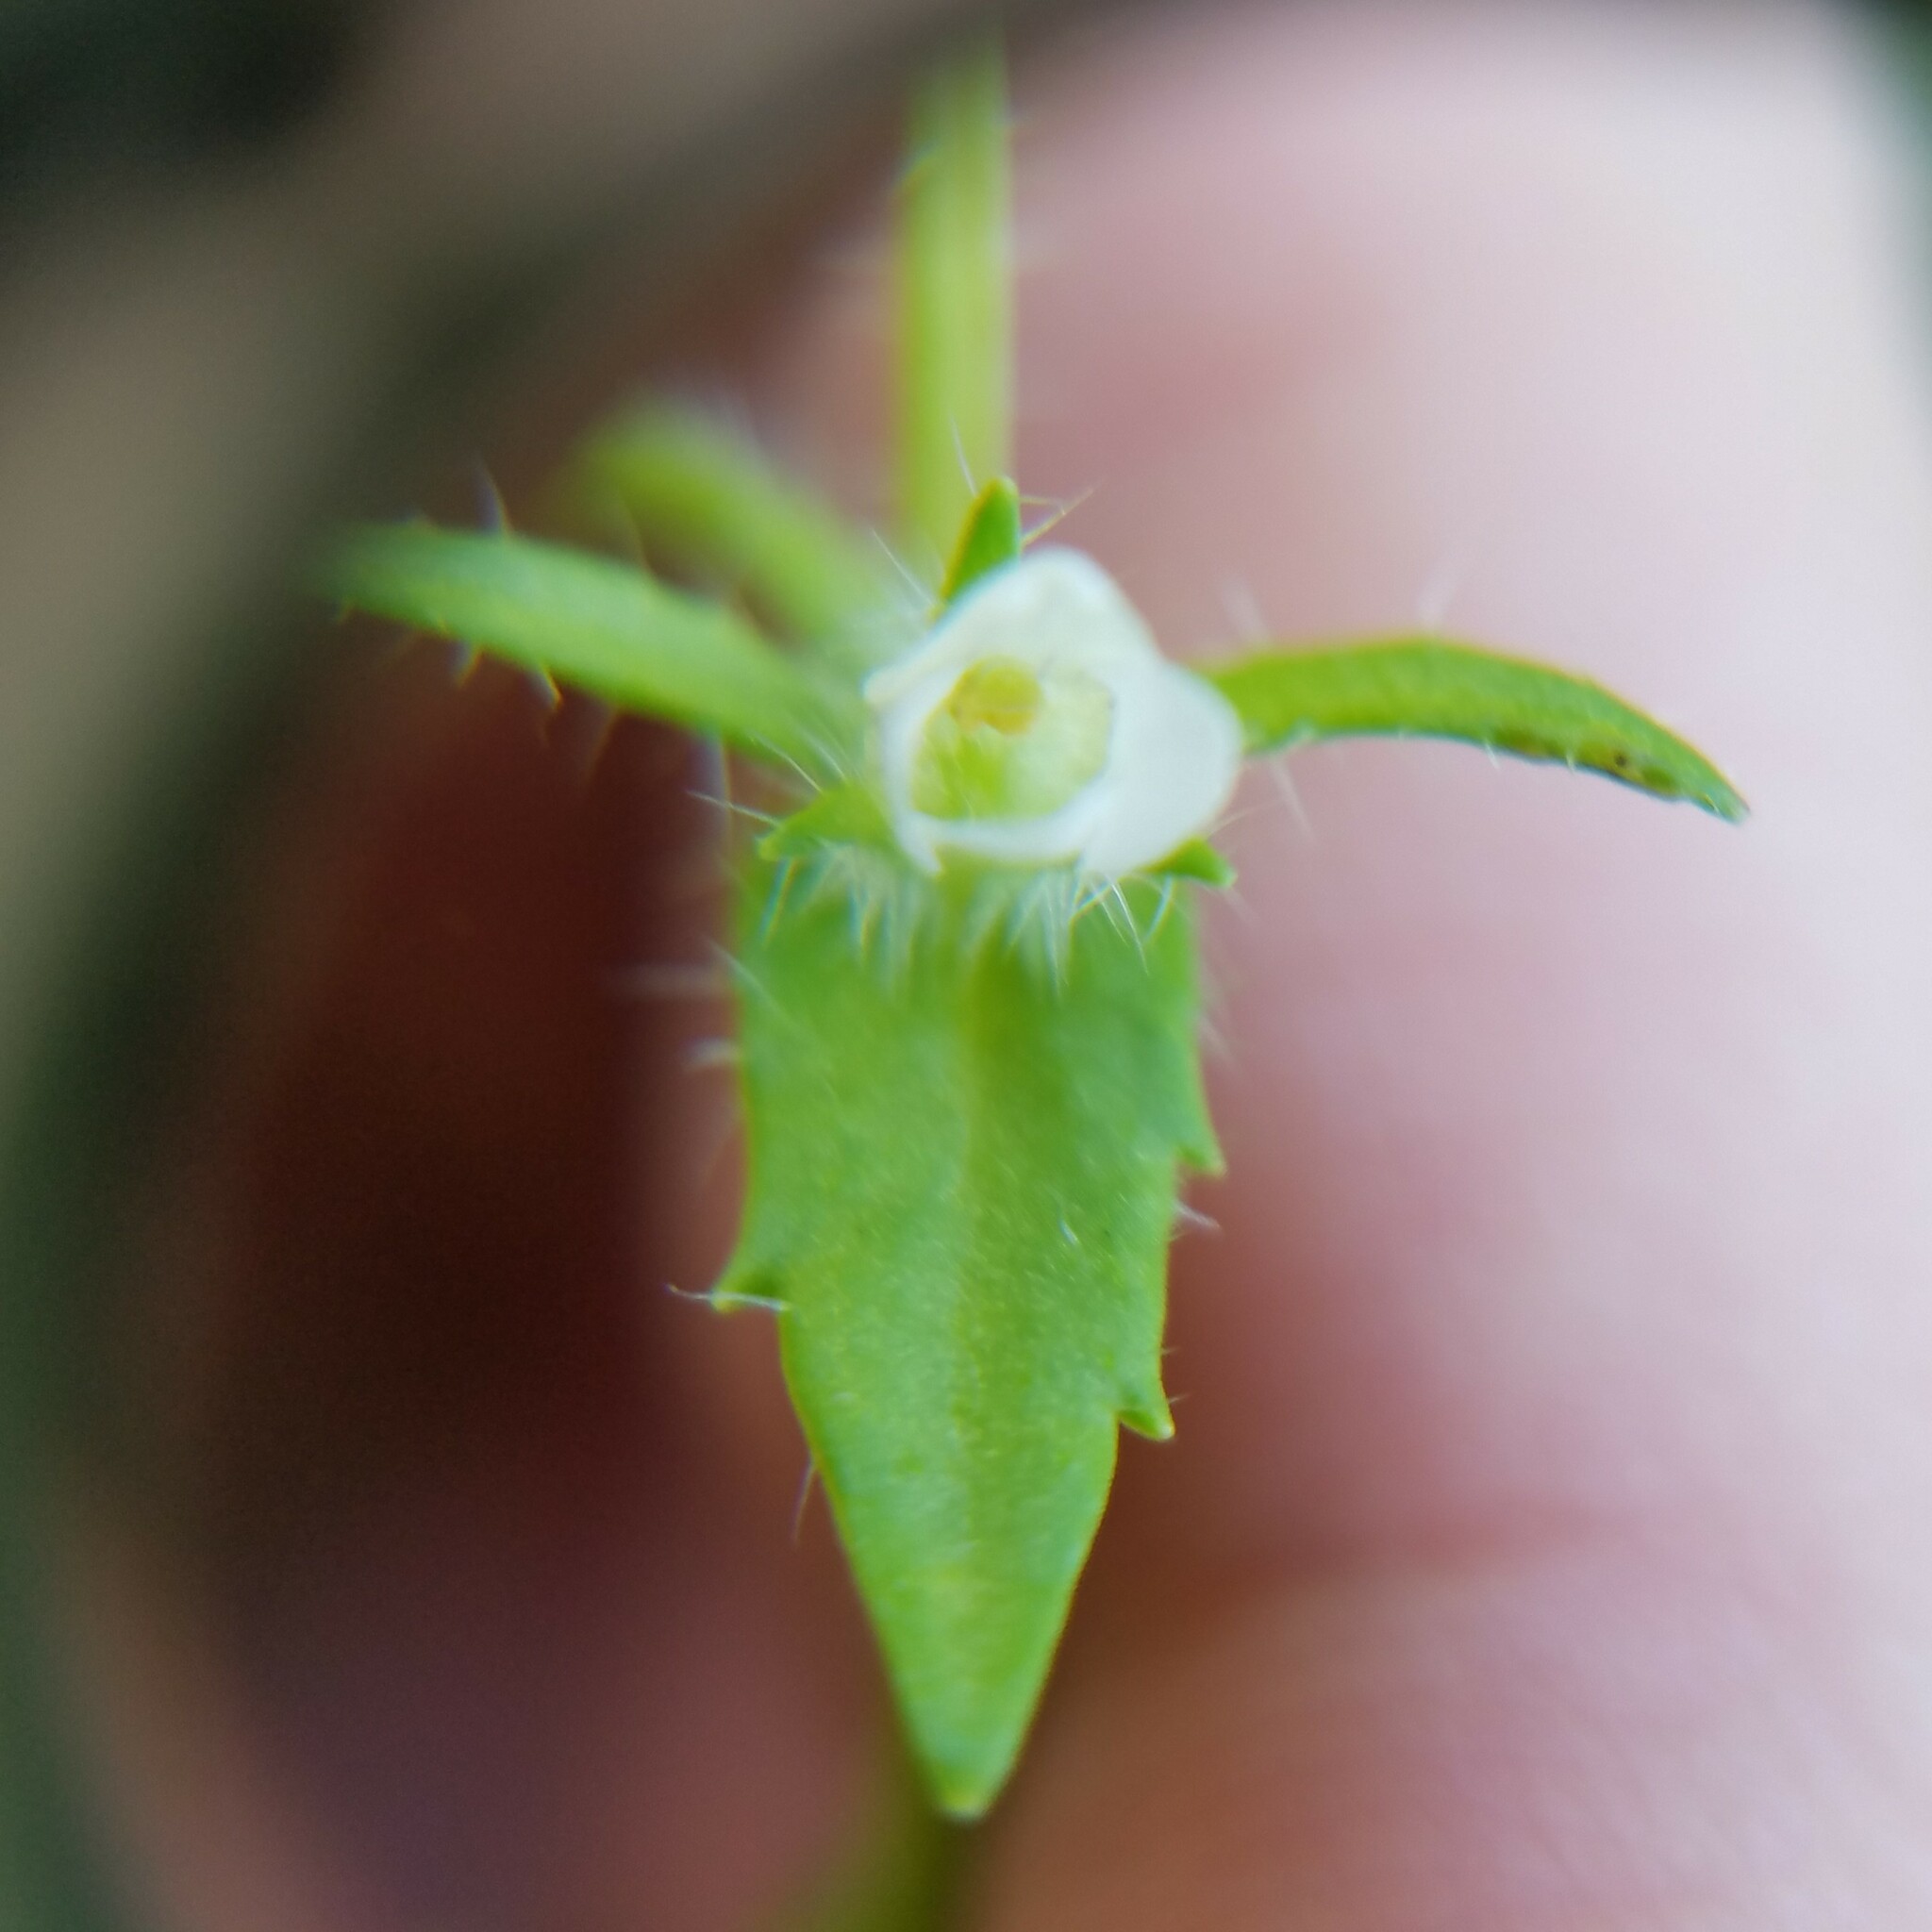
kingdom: Plantae
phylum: Tracheophyta
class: Magnoliopsida
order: Lamiales
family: Plantaginaceae
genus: Gratiola
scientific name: Gratiola pilosa
